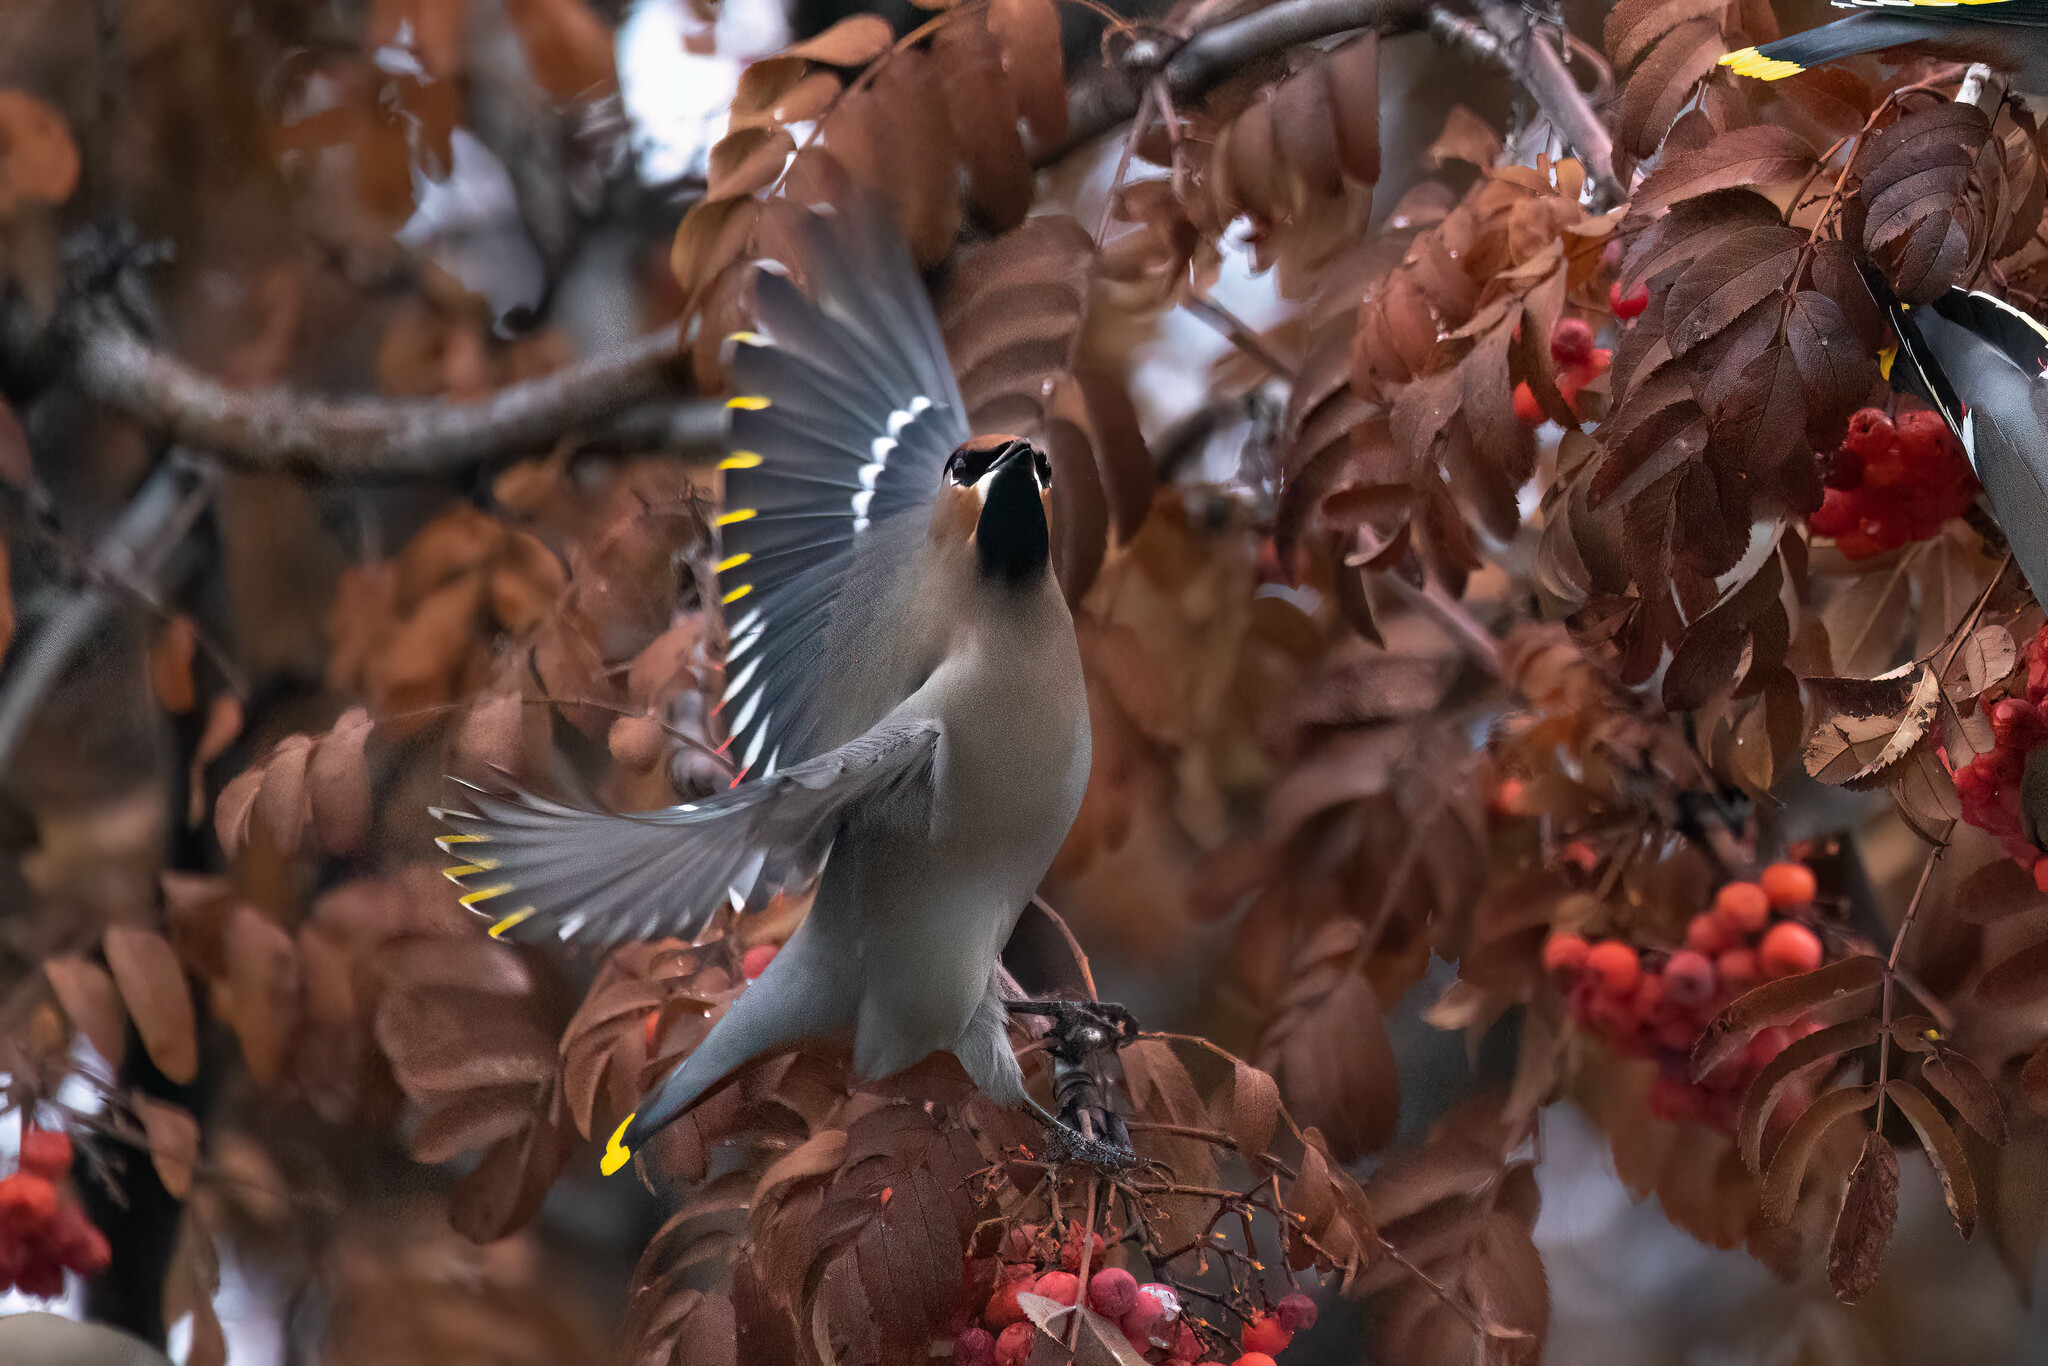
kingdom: Animalia
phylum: Chordata
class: Aves
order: Passeriformes
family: Bombycillidae
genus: Bombycilla
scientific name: Bombycilla garrulus
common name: Bohemian waxwing
